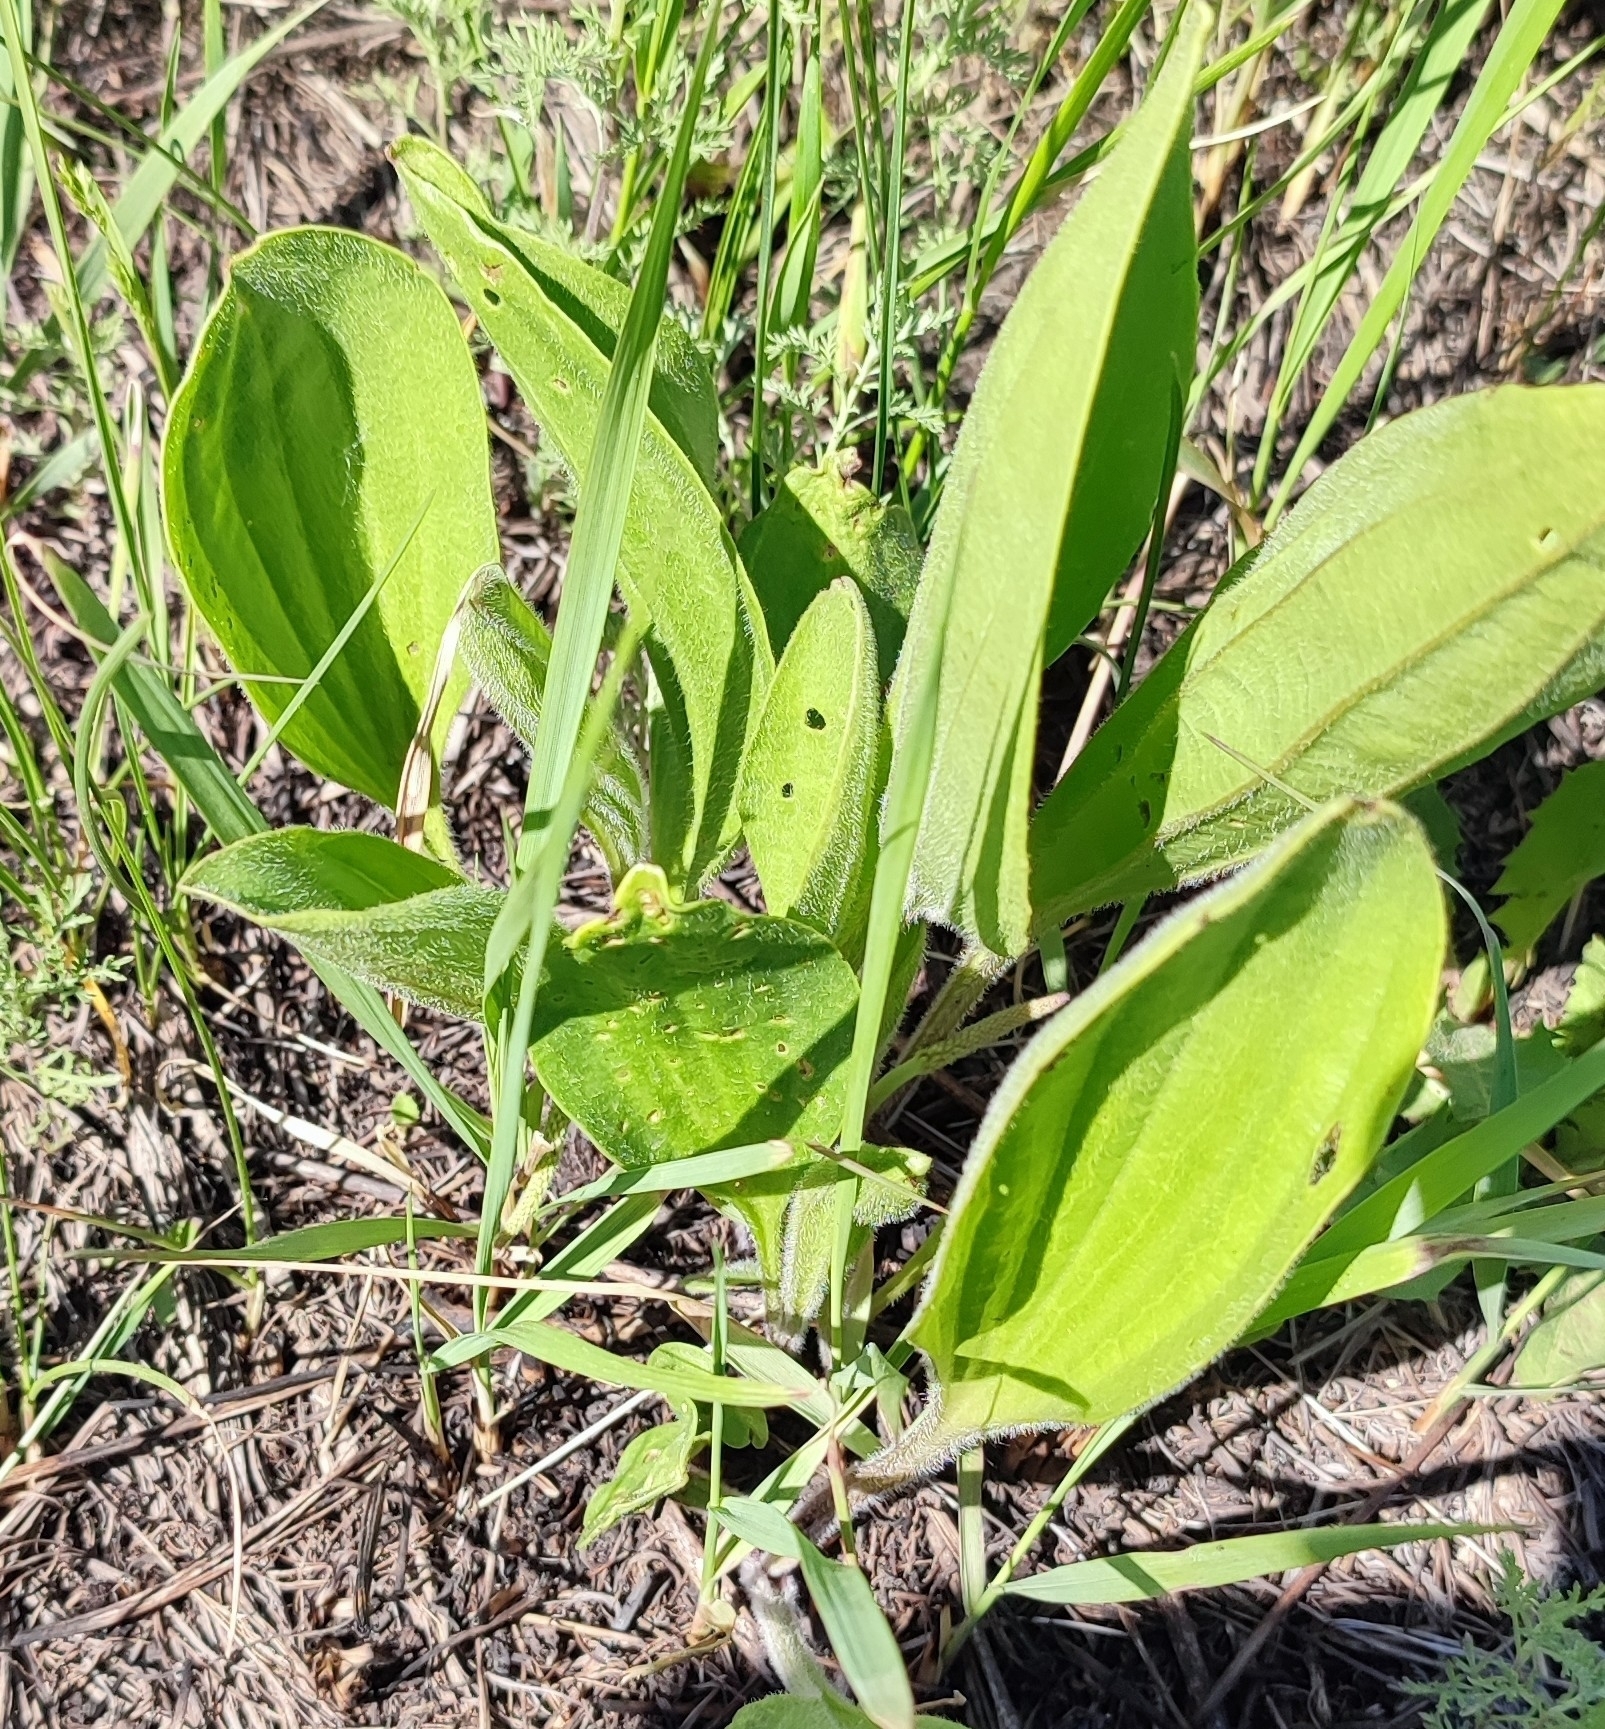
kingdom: Plantae
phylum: Tracheophyta
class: Magnoliopsida
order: Lamiales
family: Plantaginaceae
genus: Plantago
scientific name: Plantago cornuti
